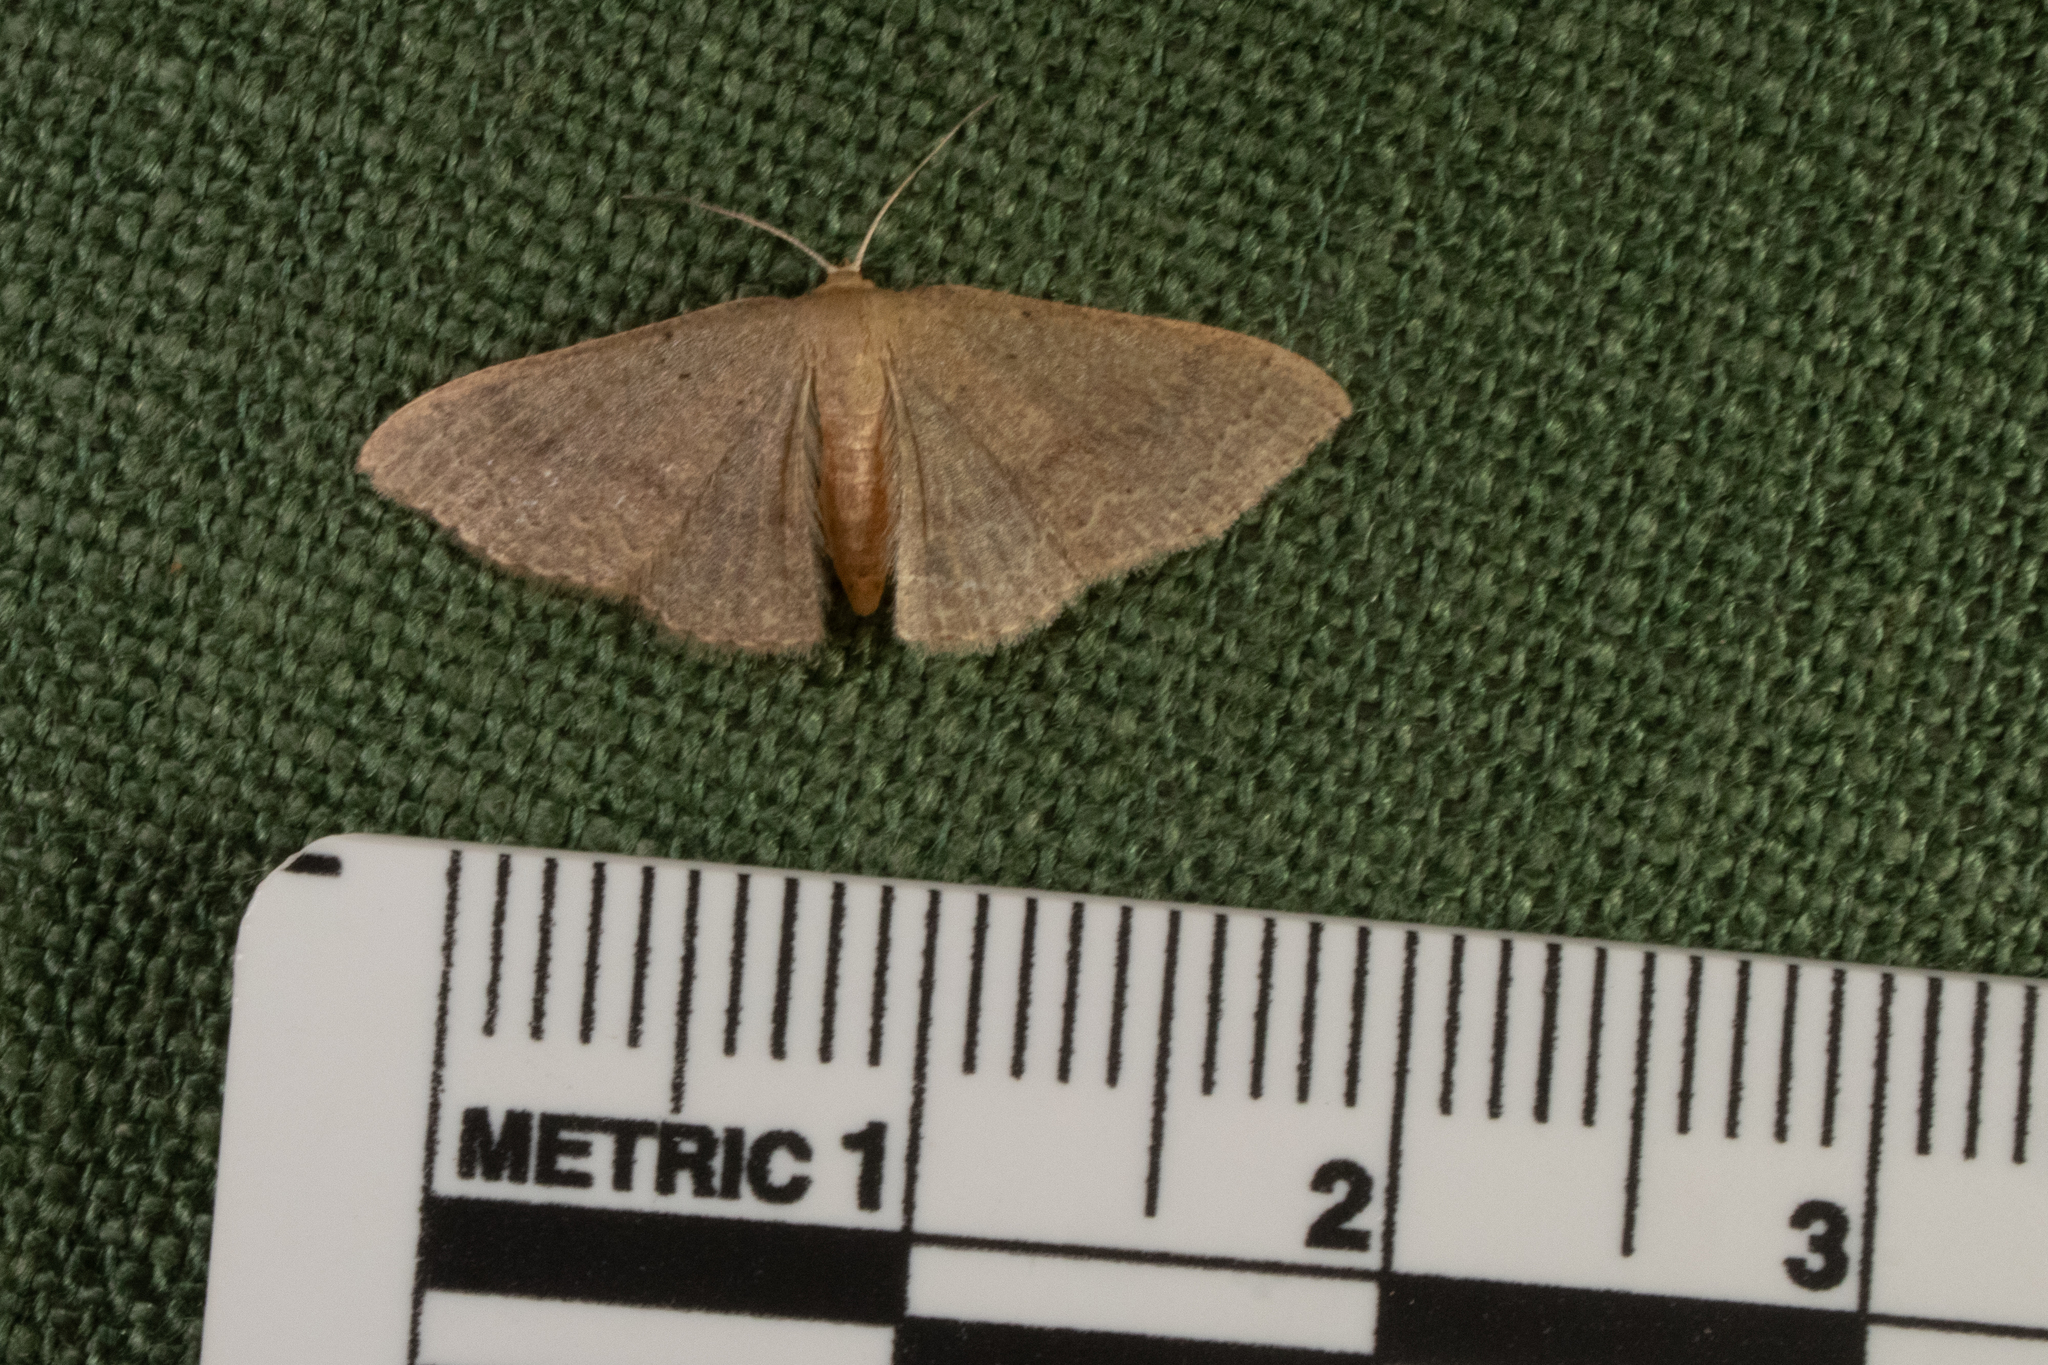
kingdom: Animalia
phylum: Arthropoda
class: Insecta
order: Lepidoptera
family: Geometridae
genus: Pleuroprucha
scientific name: Pleuroprucha insulsaria
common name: Common tan wave
